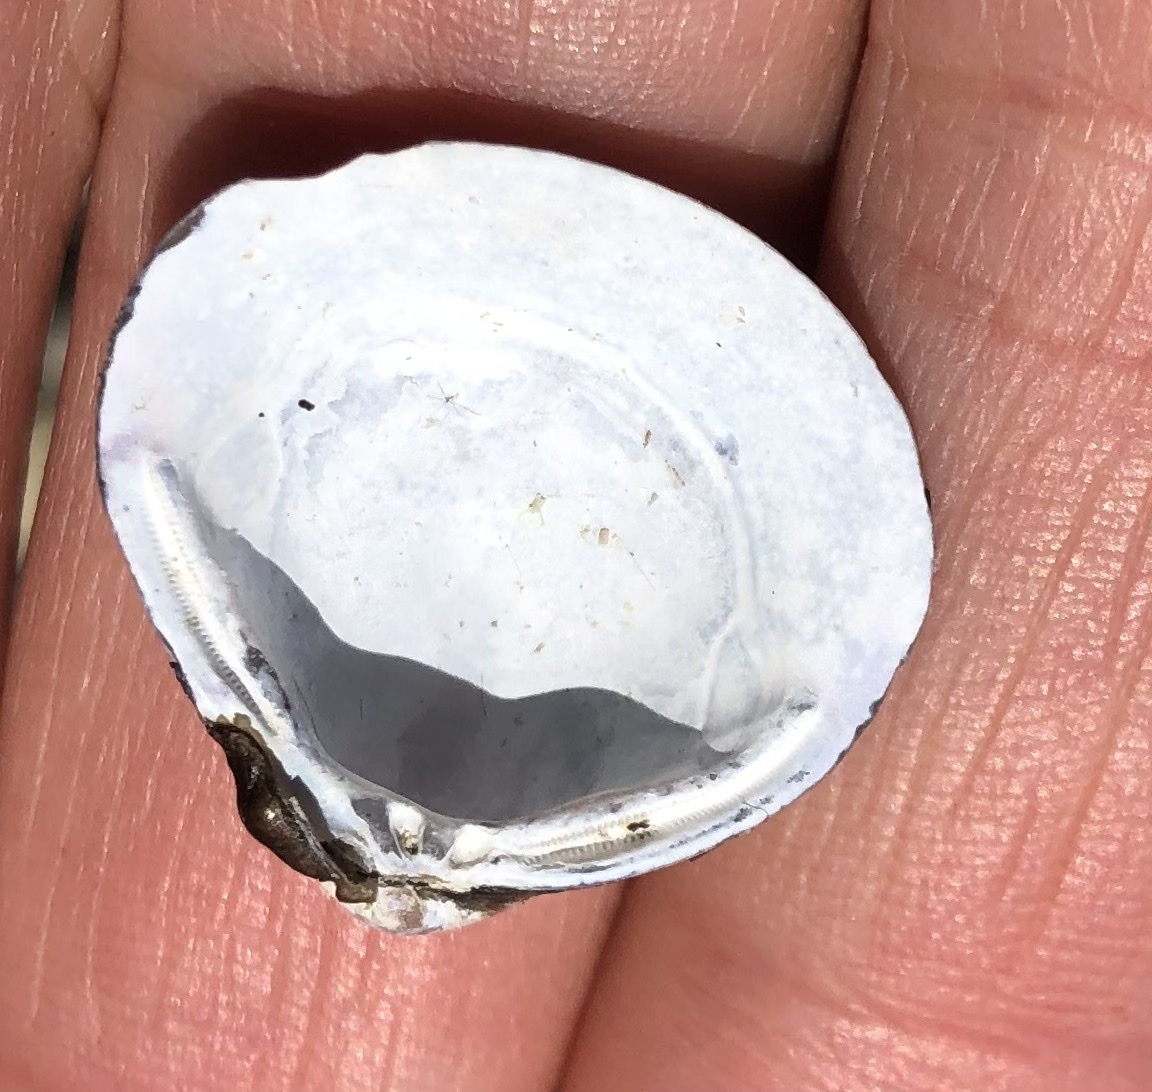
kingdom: Animalia
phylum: Mollusca
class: Bivalvia
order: Venerida
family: Cyrenidae
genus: Corbicula
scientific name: Corbicula fluminea
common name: Asian clam
